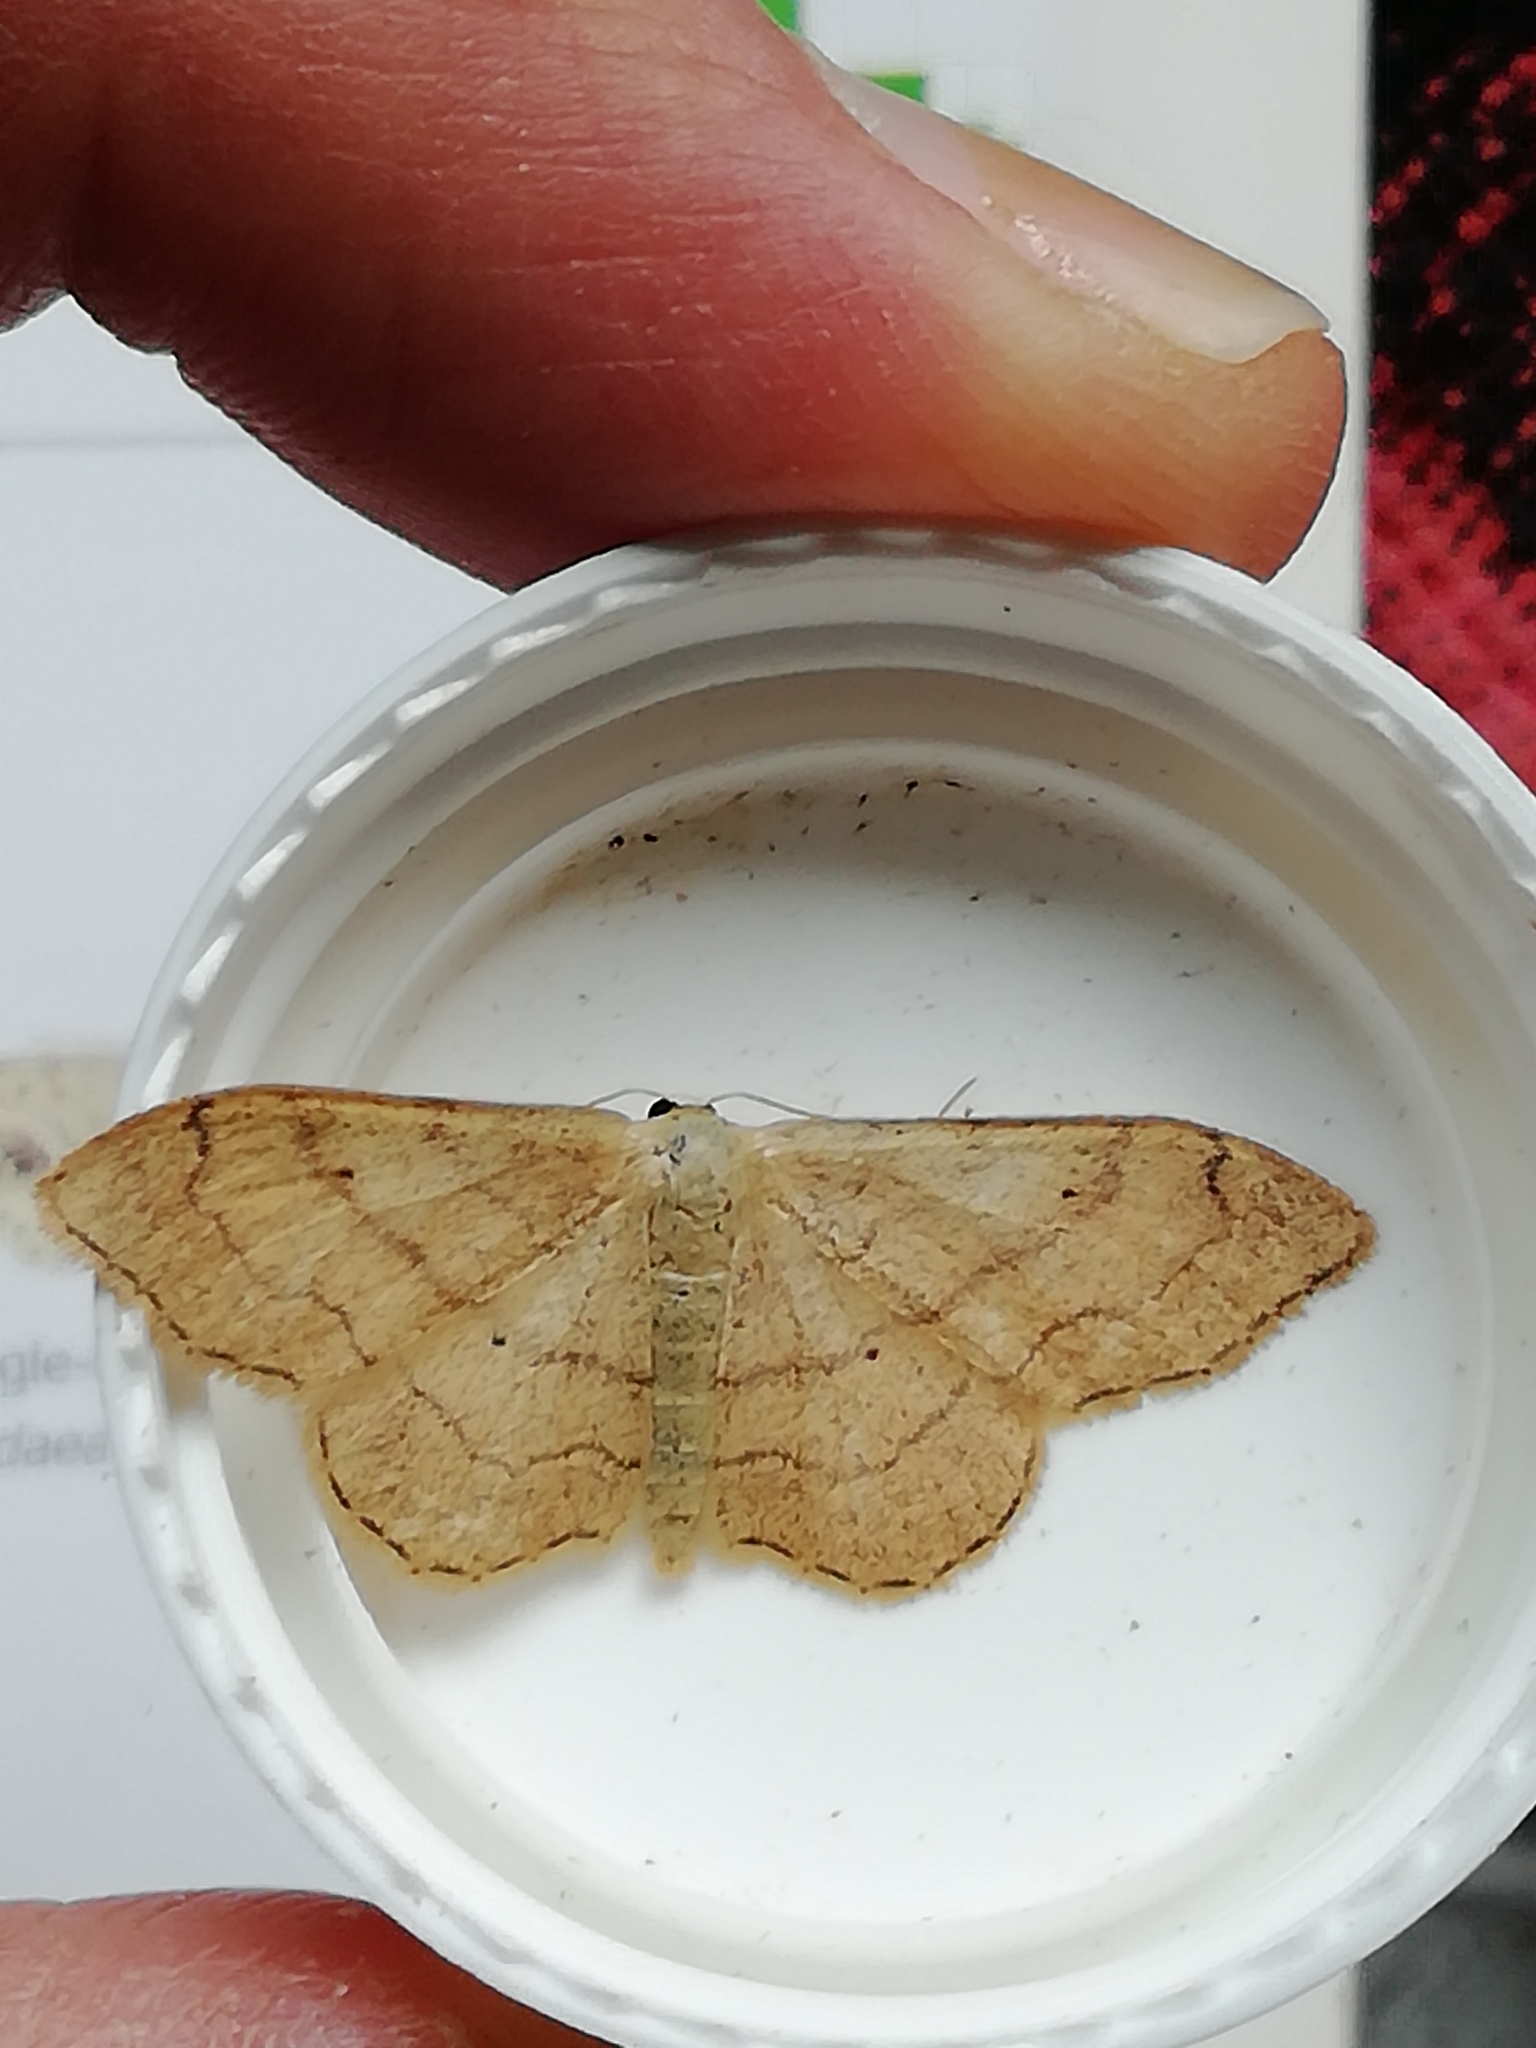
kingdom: Animalia
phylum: Arthropoda
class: Insecta
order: Lepidoptera
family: Geometridae
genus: Idaea
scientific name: Idaea aversata
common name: Riband wave
